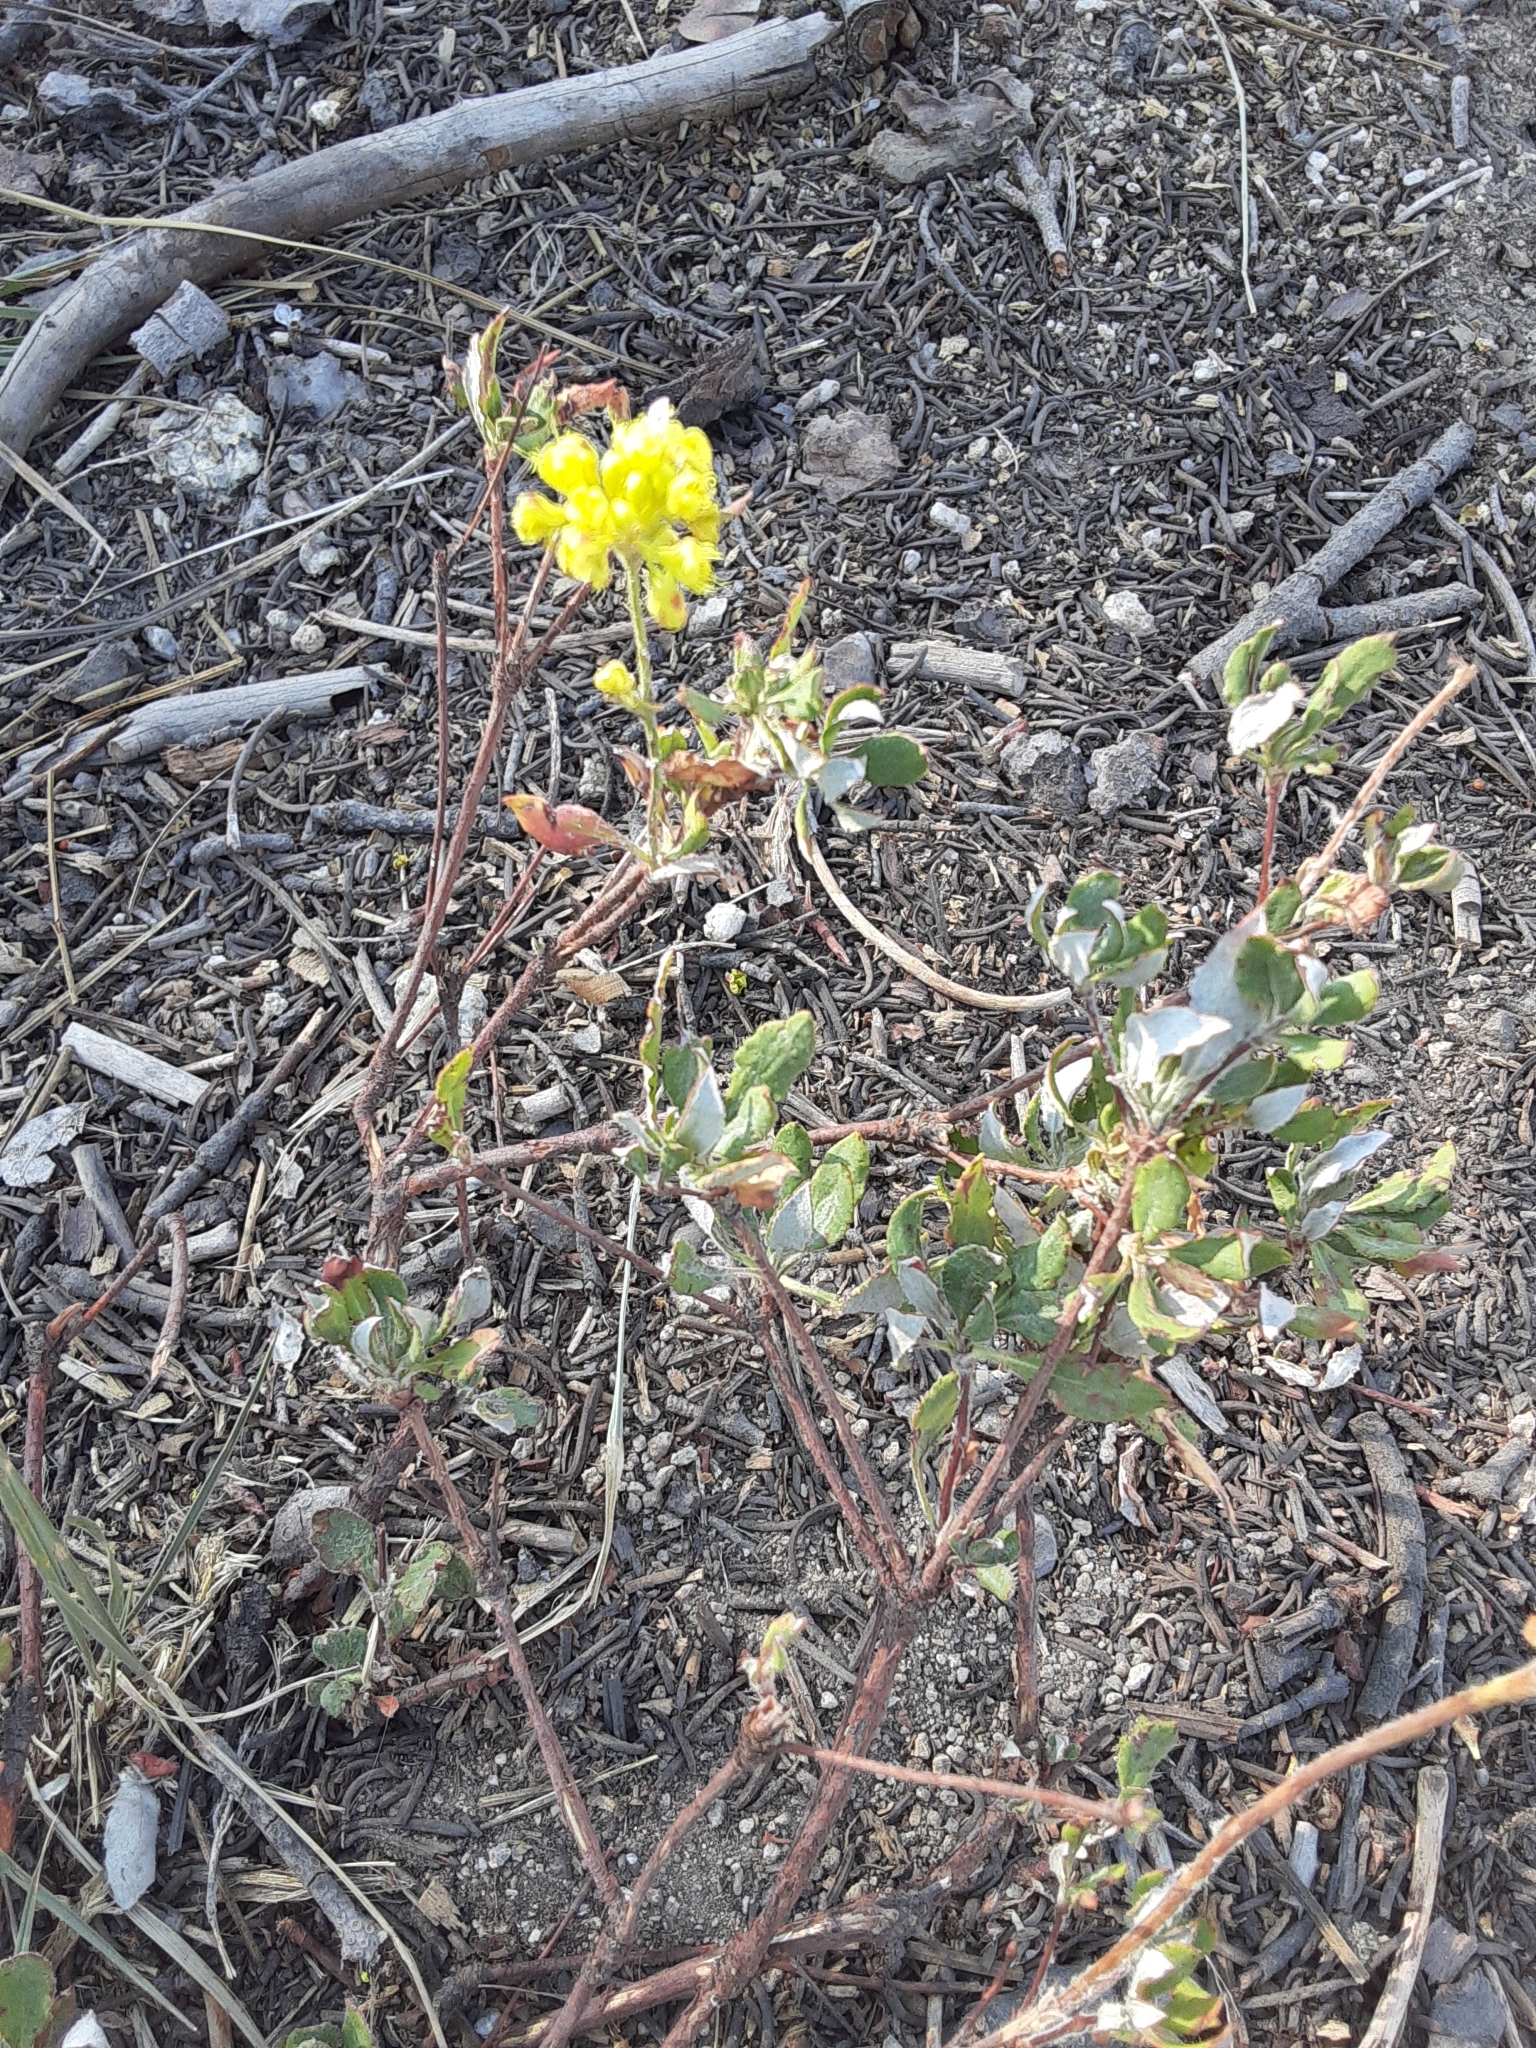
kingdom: Plantae
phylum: Tracheophyta
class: Magnoliopsida
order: Caryophyllales
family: Polygonaceae
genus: Eriogonum
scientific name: Eriogonum umbellatum
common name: Sulfur-buckwheat
